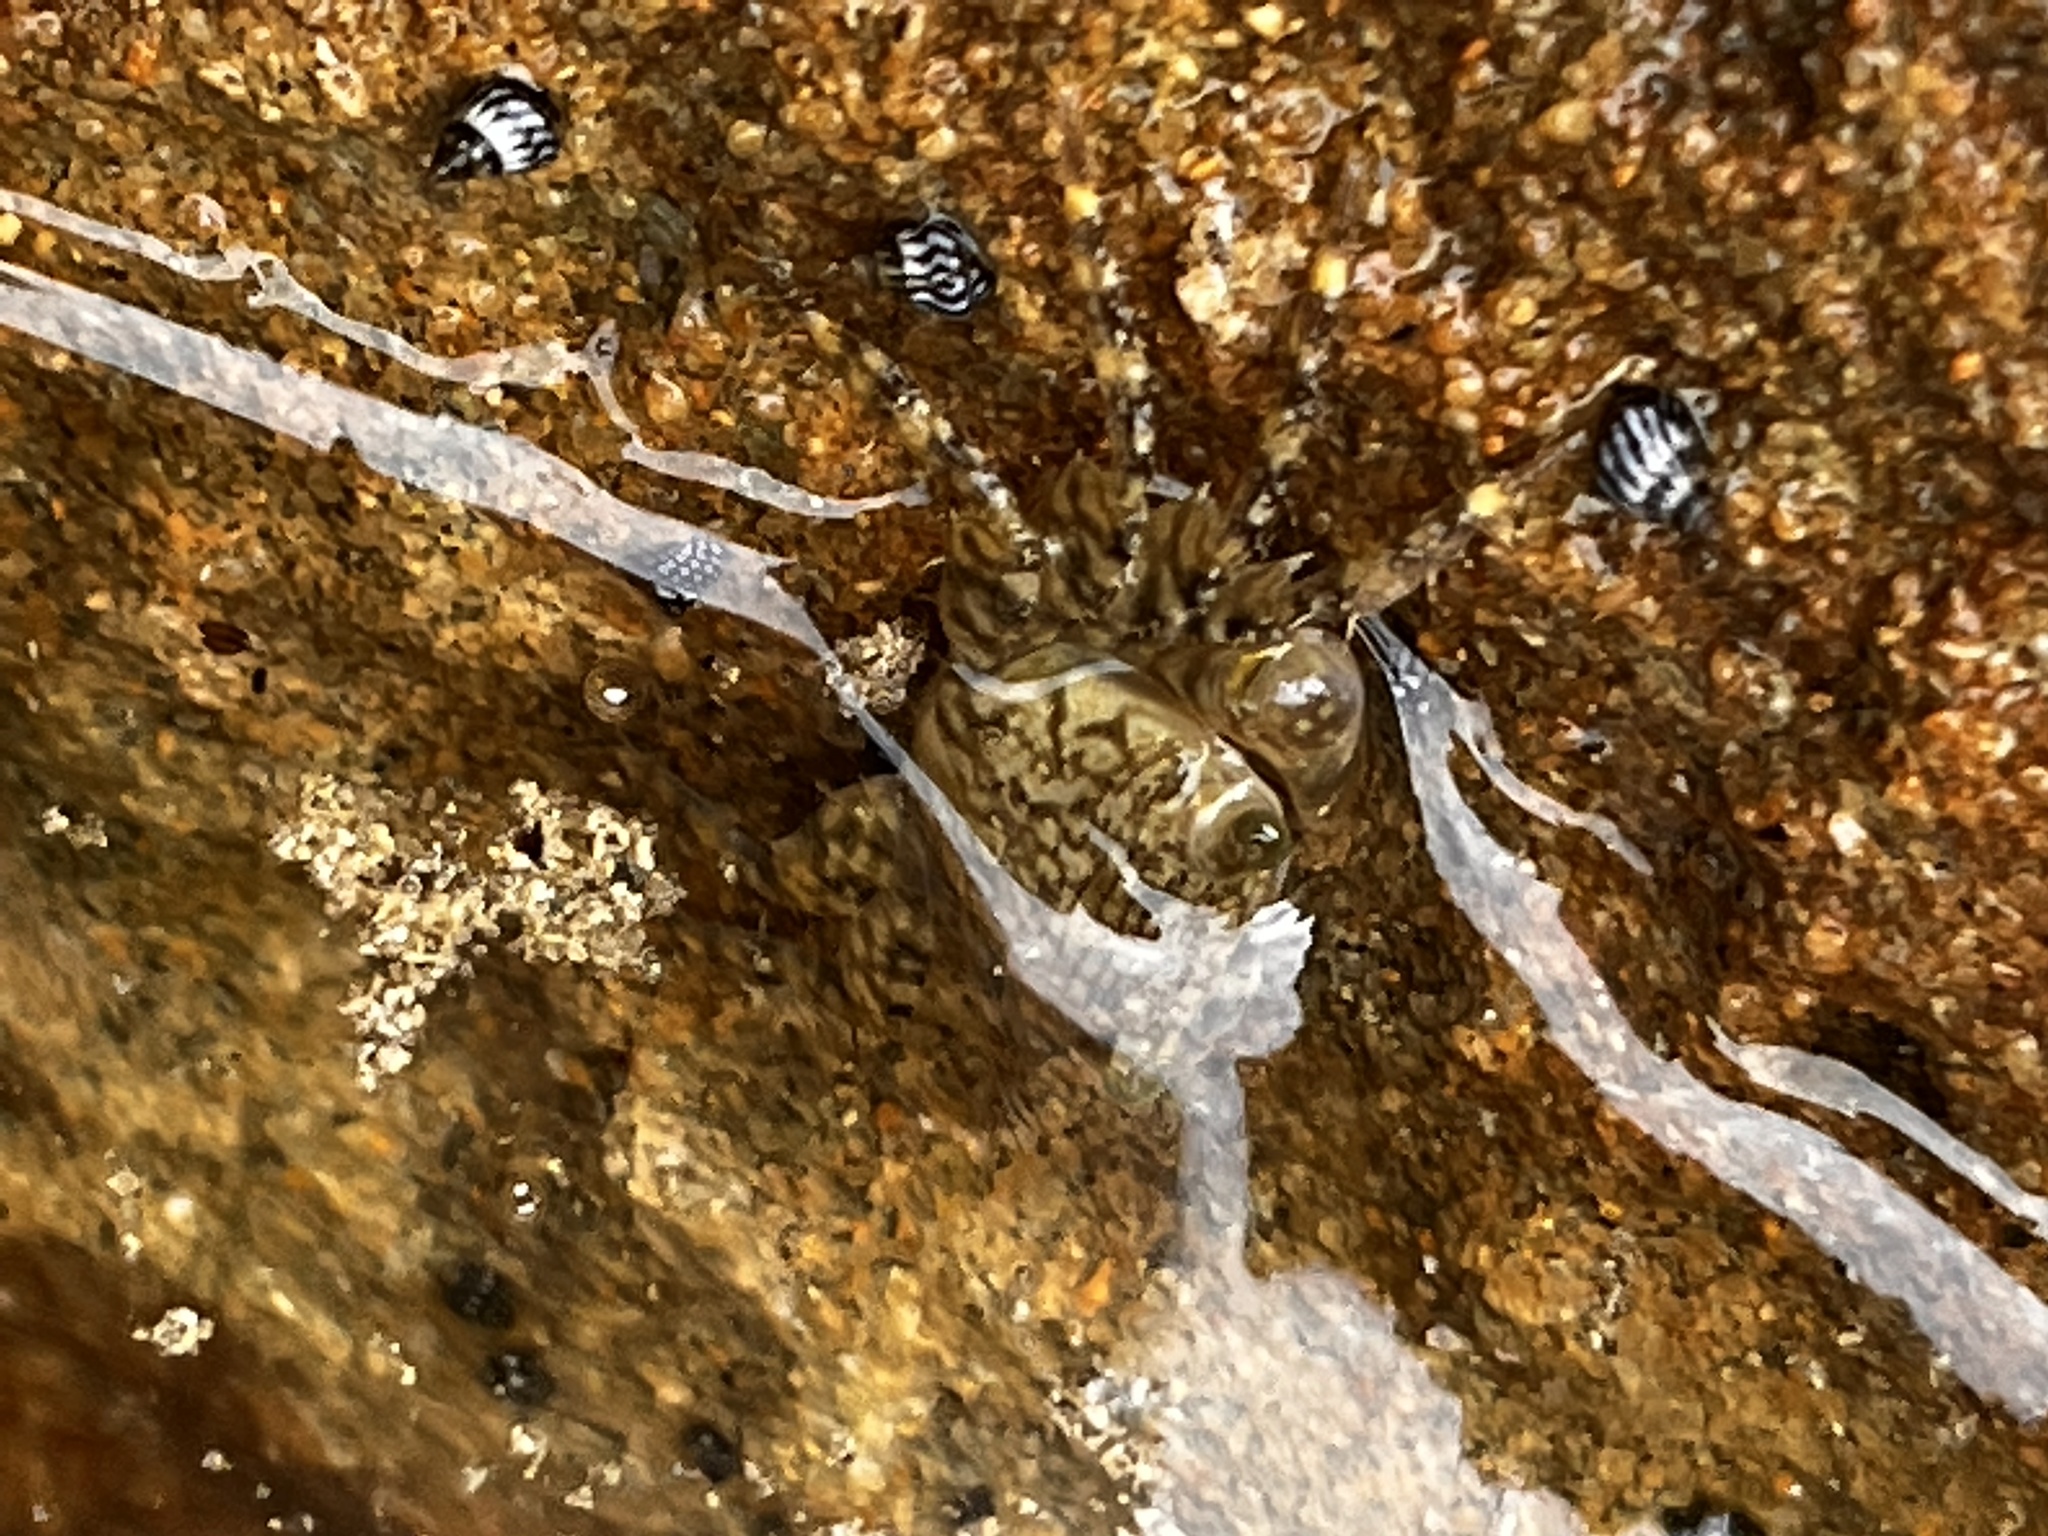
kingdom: Animalia
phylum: Arthropoda
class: Malacostraca
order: Decapoda
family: Grapsidae
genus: Pachygrapsus
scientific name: Pachygrapsus transversus
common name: Mottled shore crab
